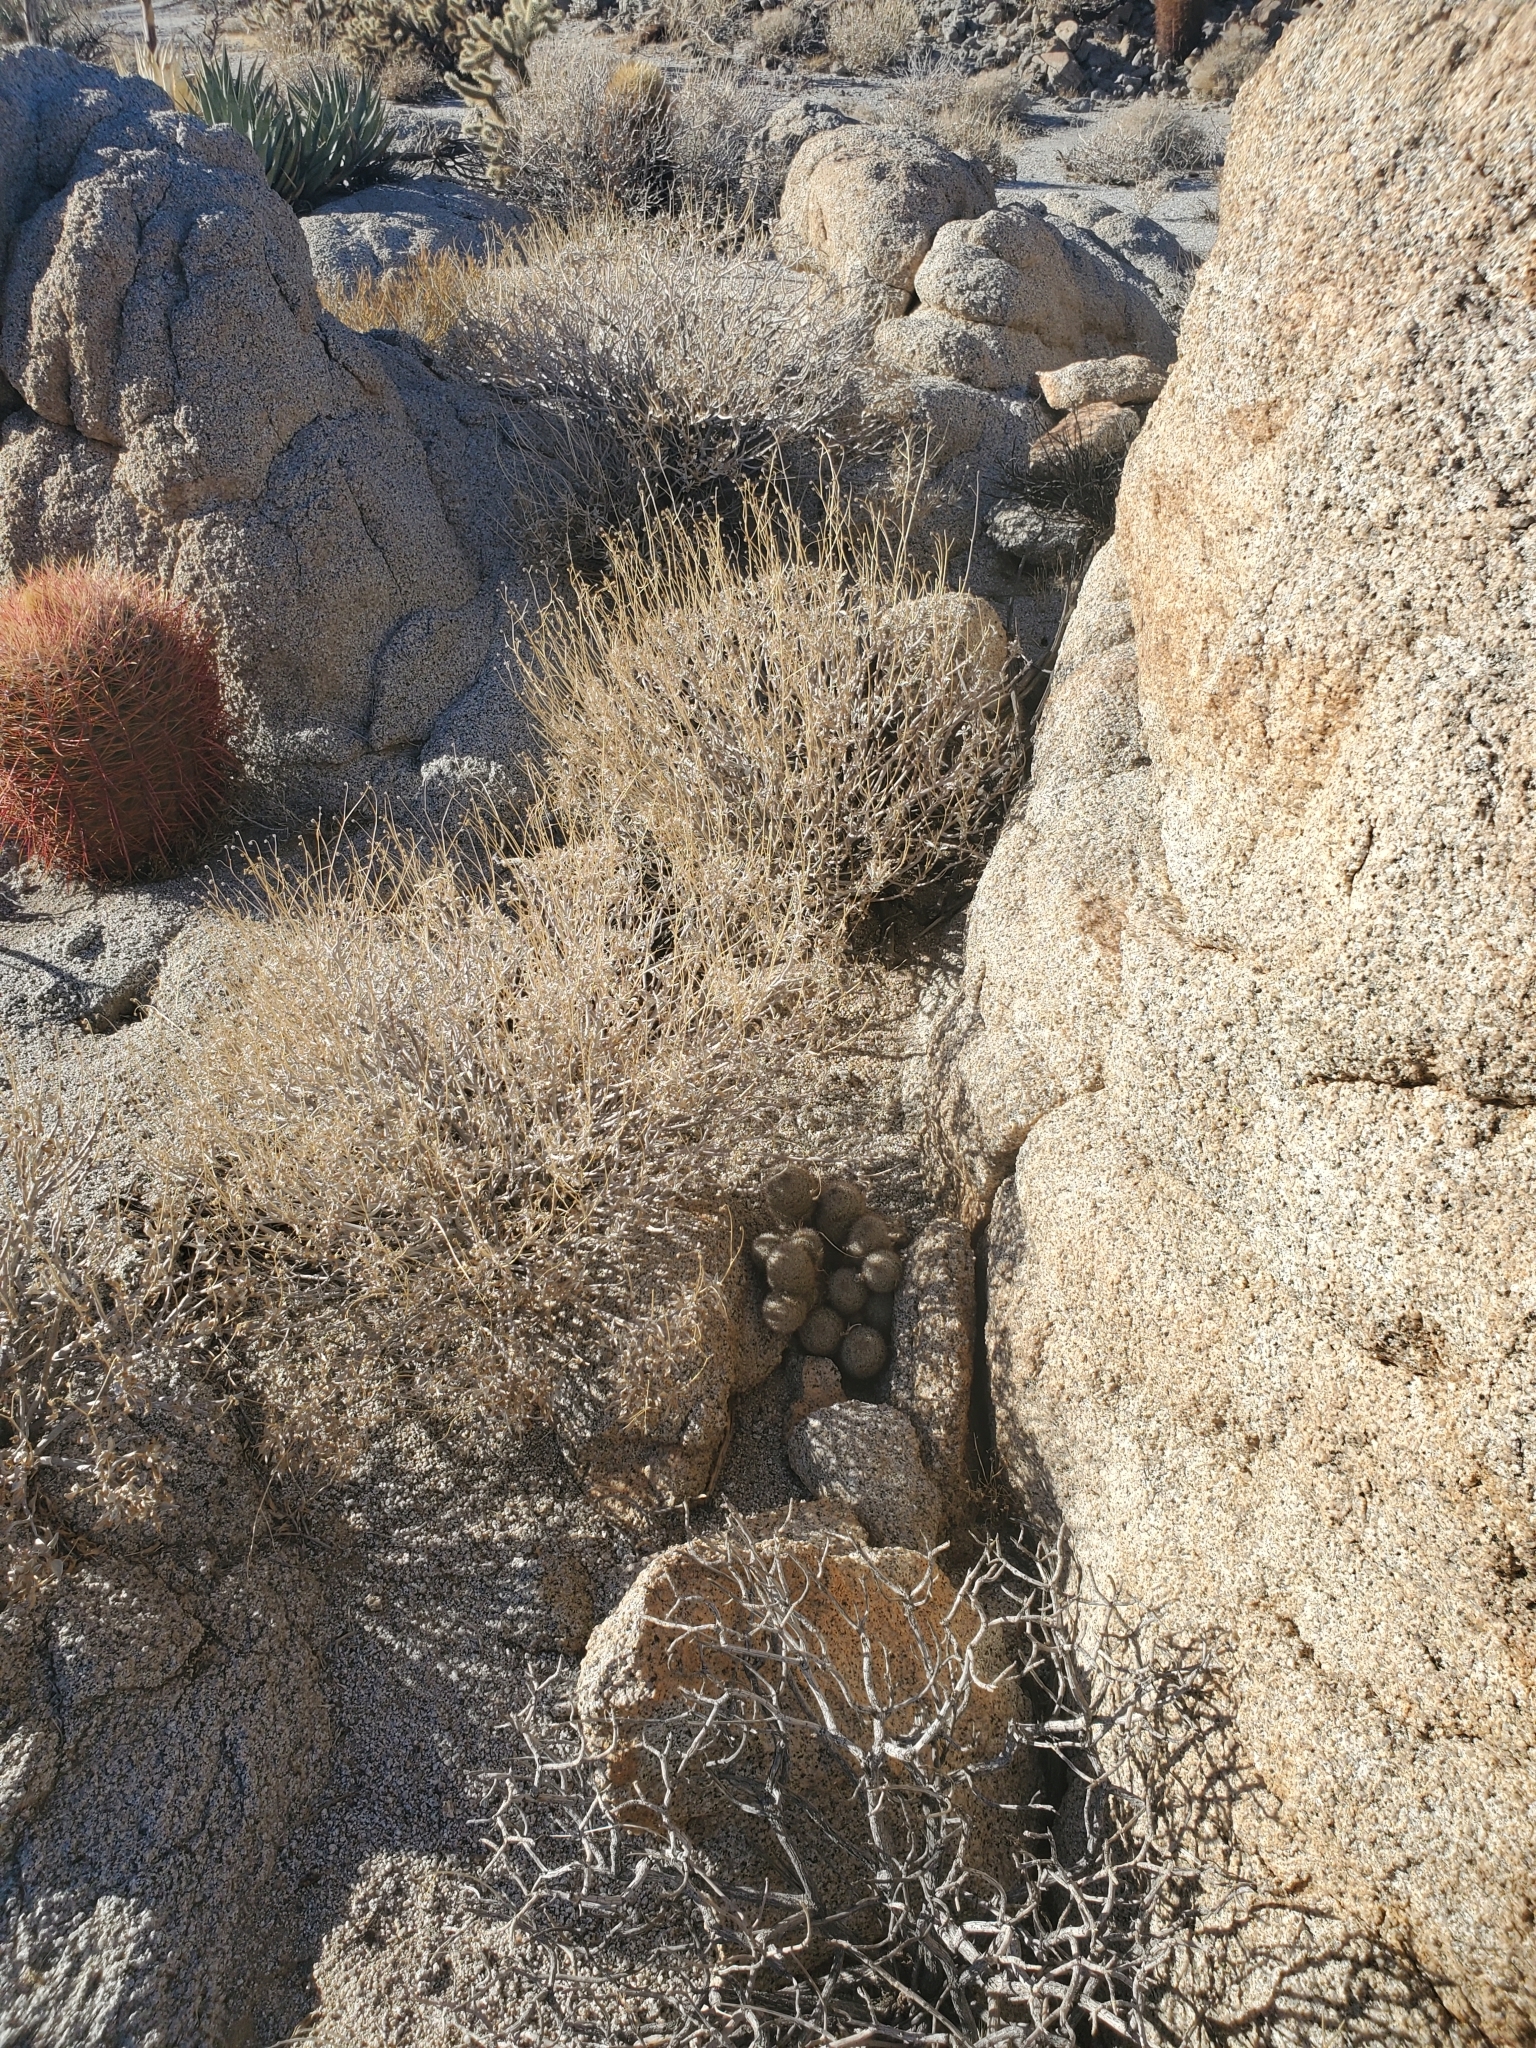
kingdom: Plantae
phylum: Tracheophyta
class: Magnoliopsida
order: Caryophyllales
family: Cactaceae
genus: Cochemiea
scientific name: Cochemiea dioica
